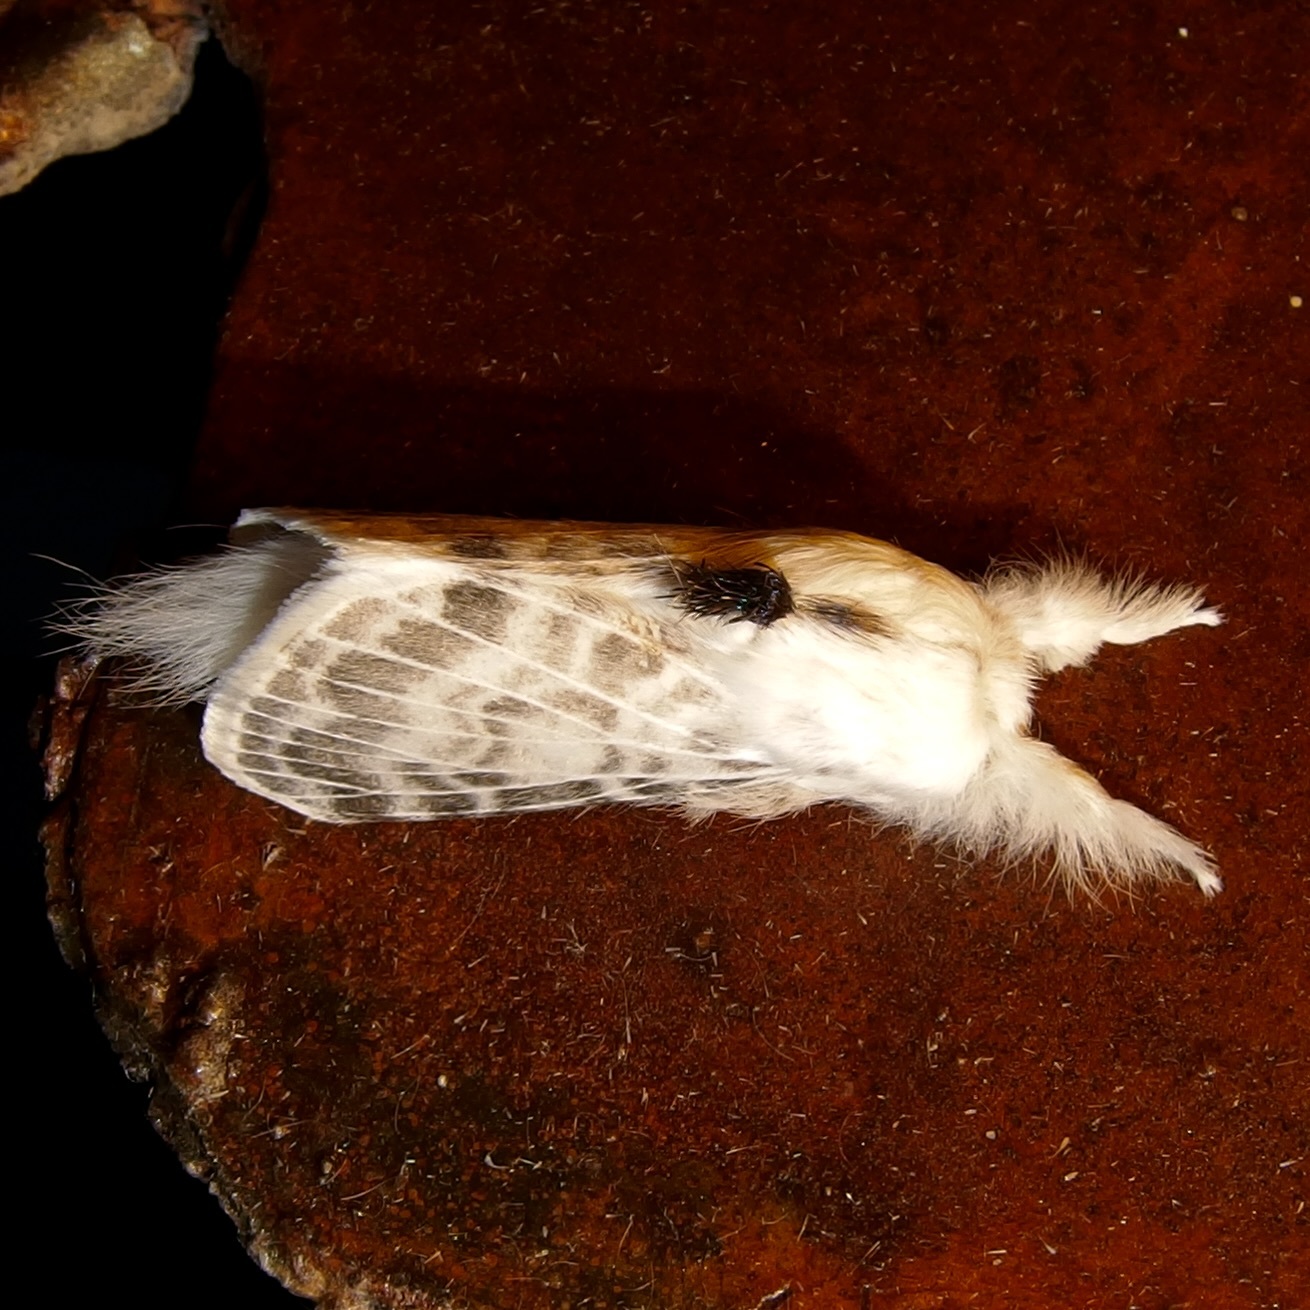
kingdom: Animalia
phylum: Arthropoda
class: Insecta
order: Lepidoptera
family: Lasiocampidae
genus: Apotolype
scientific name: Apotolype brevicrista
